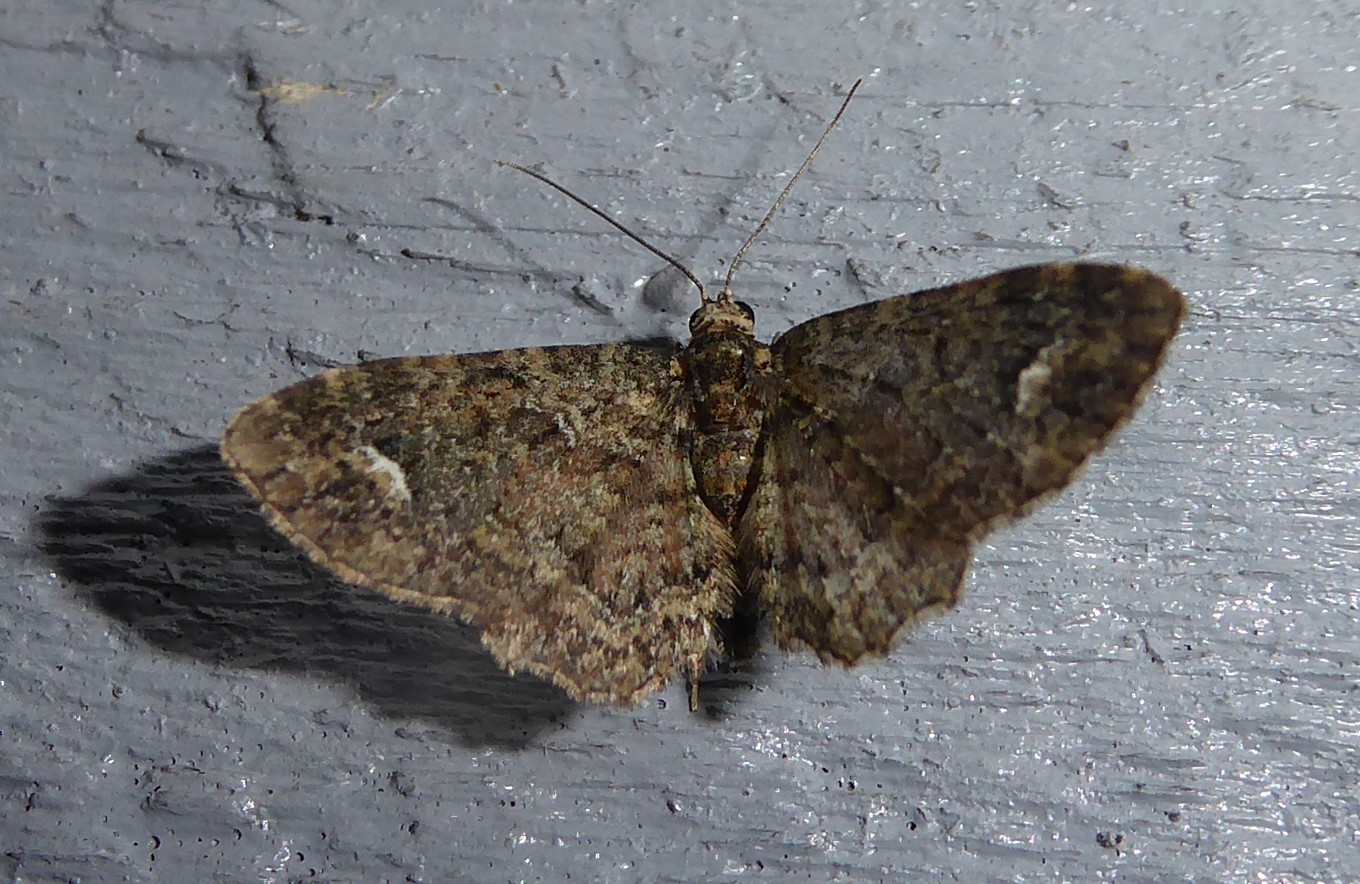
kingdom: Animalia
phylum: Arthropoda
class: Insecta
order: Lepidoptera
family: Geometridae
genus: Pasiphilodes
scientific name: Pasiphilodes testulata
